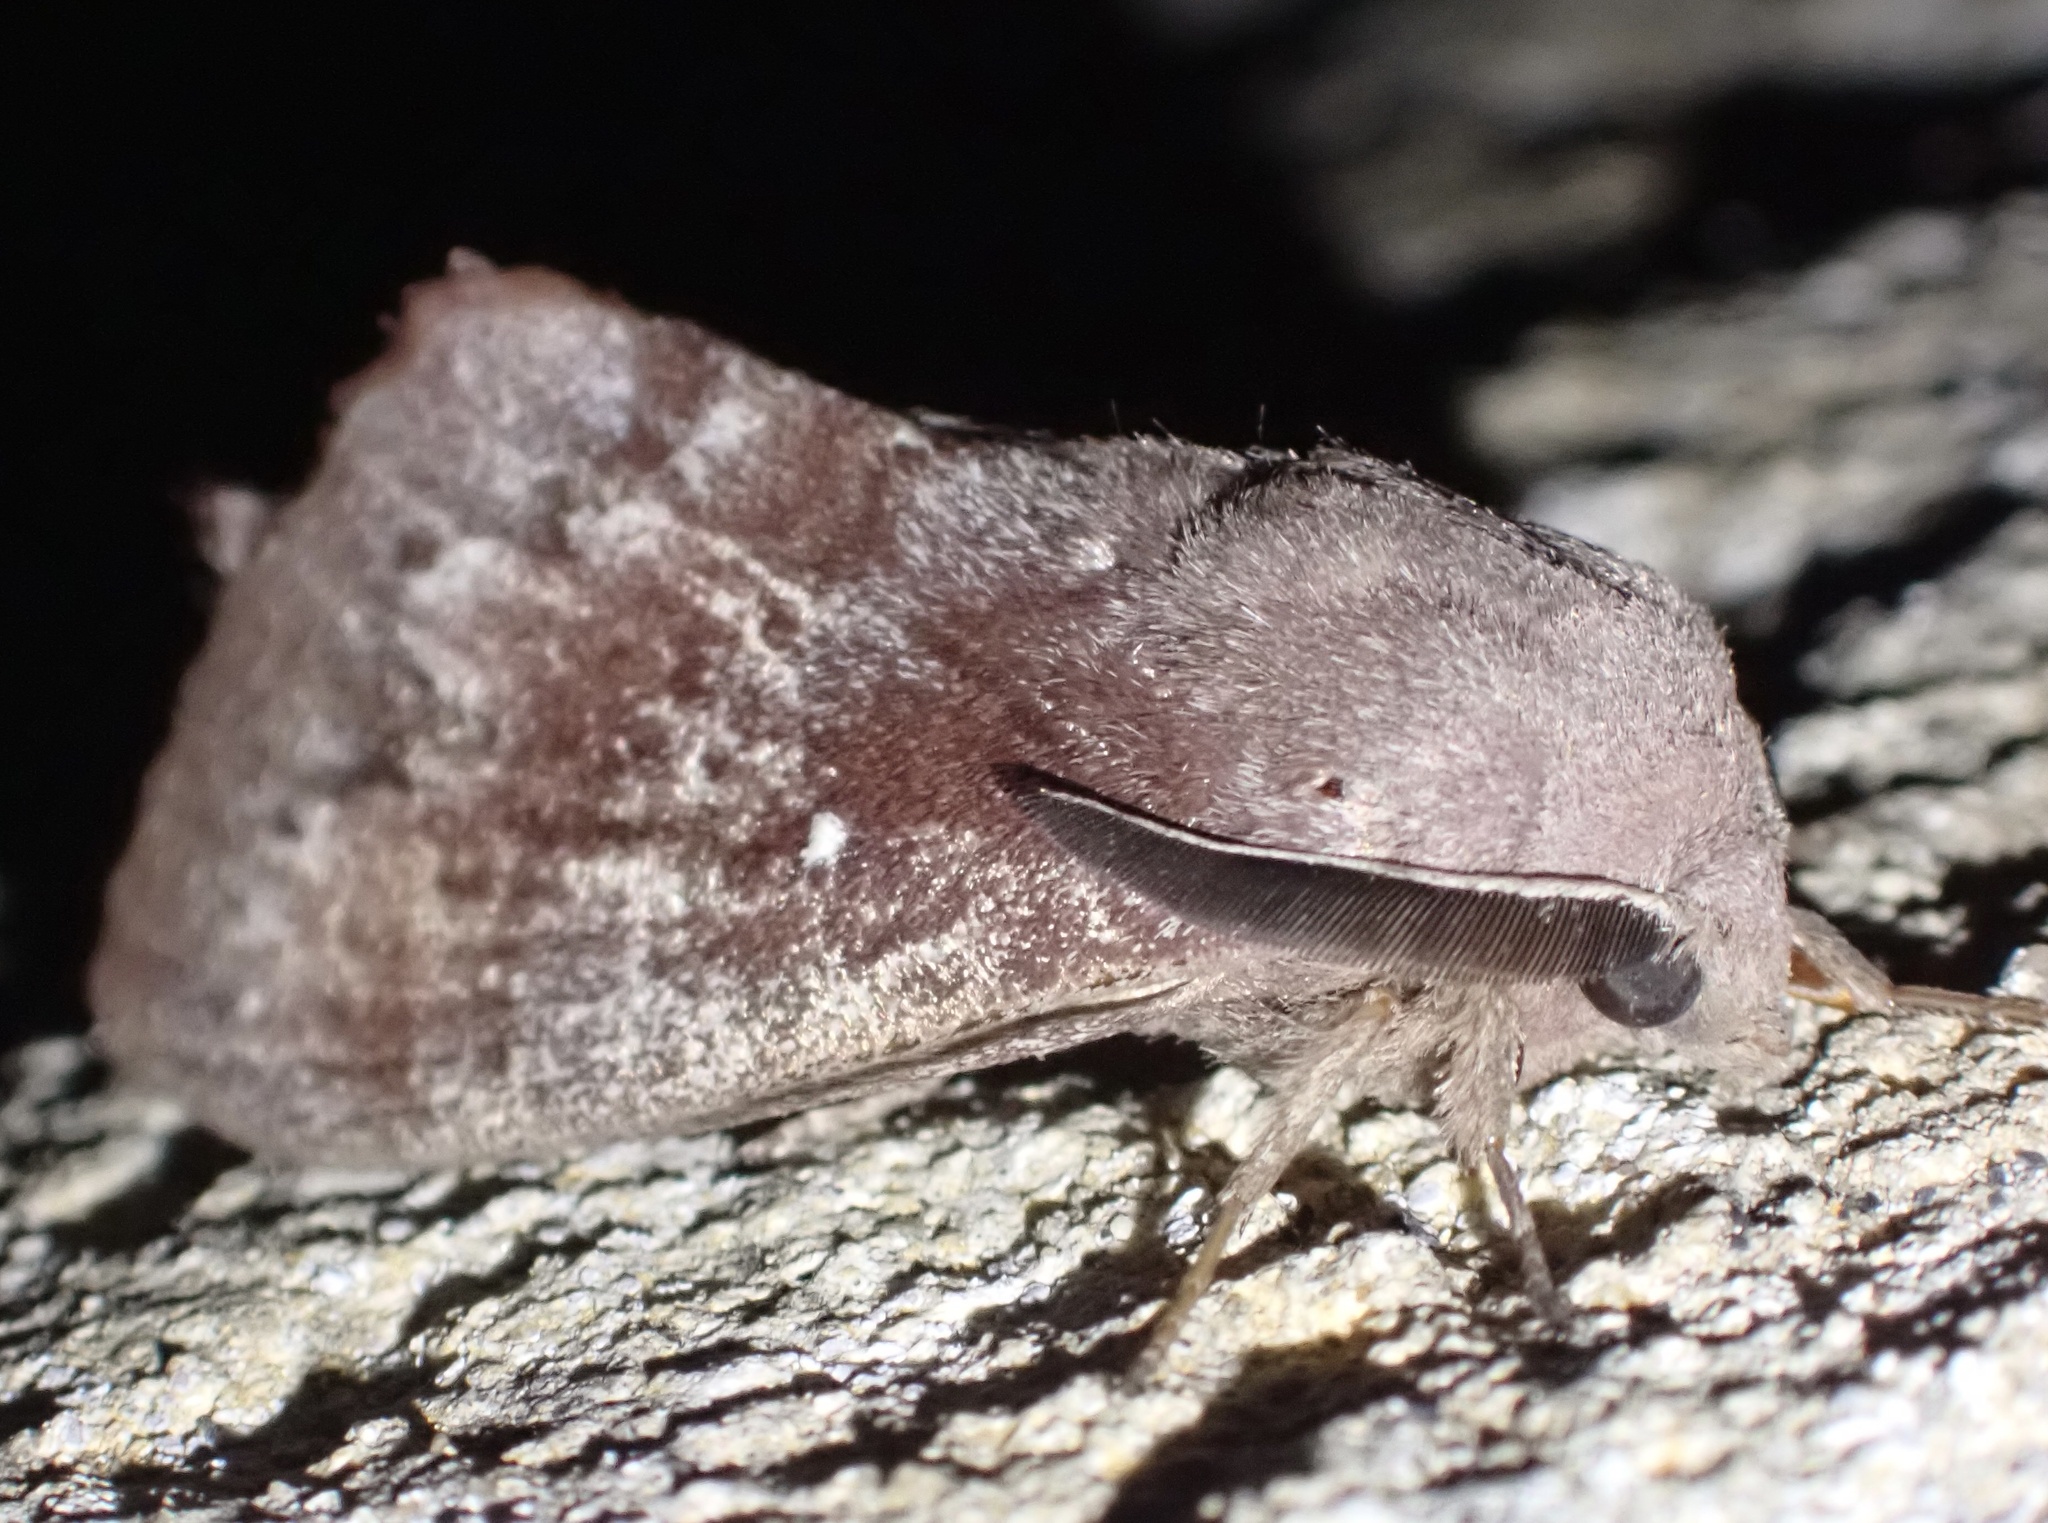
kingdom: Animalia
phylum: Arthropoda
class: Insecta
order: Lepidoptera
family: Lasiocampidae
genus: Dendrolimus
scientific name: Dendrolimus pini
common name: Pine-tree lappet
